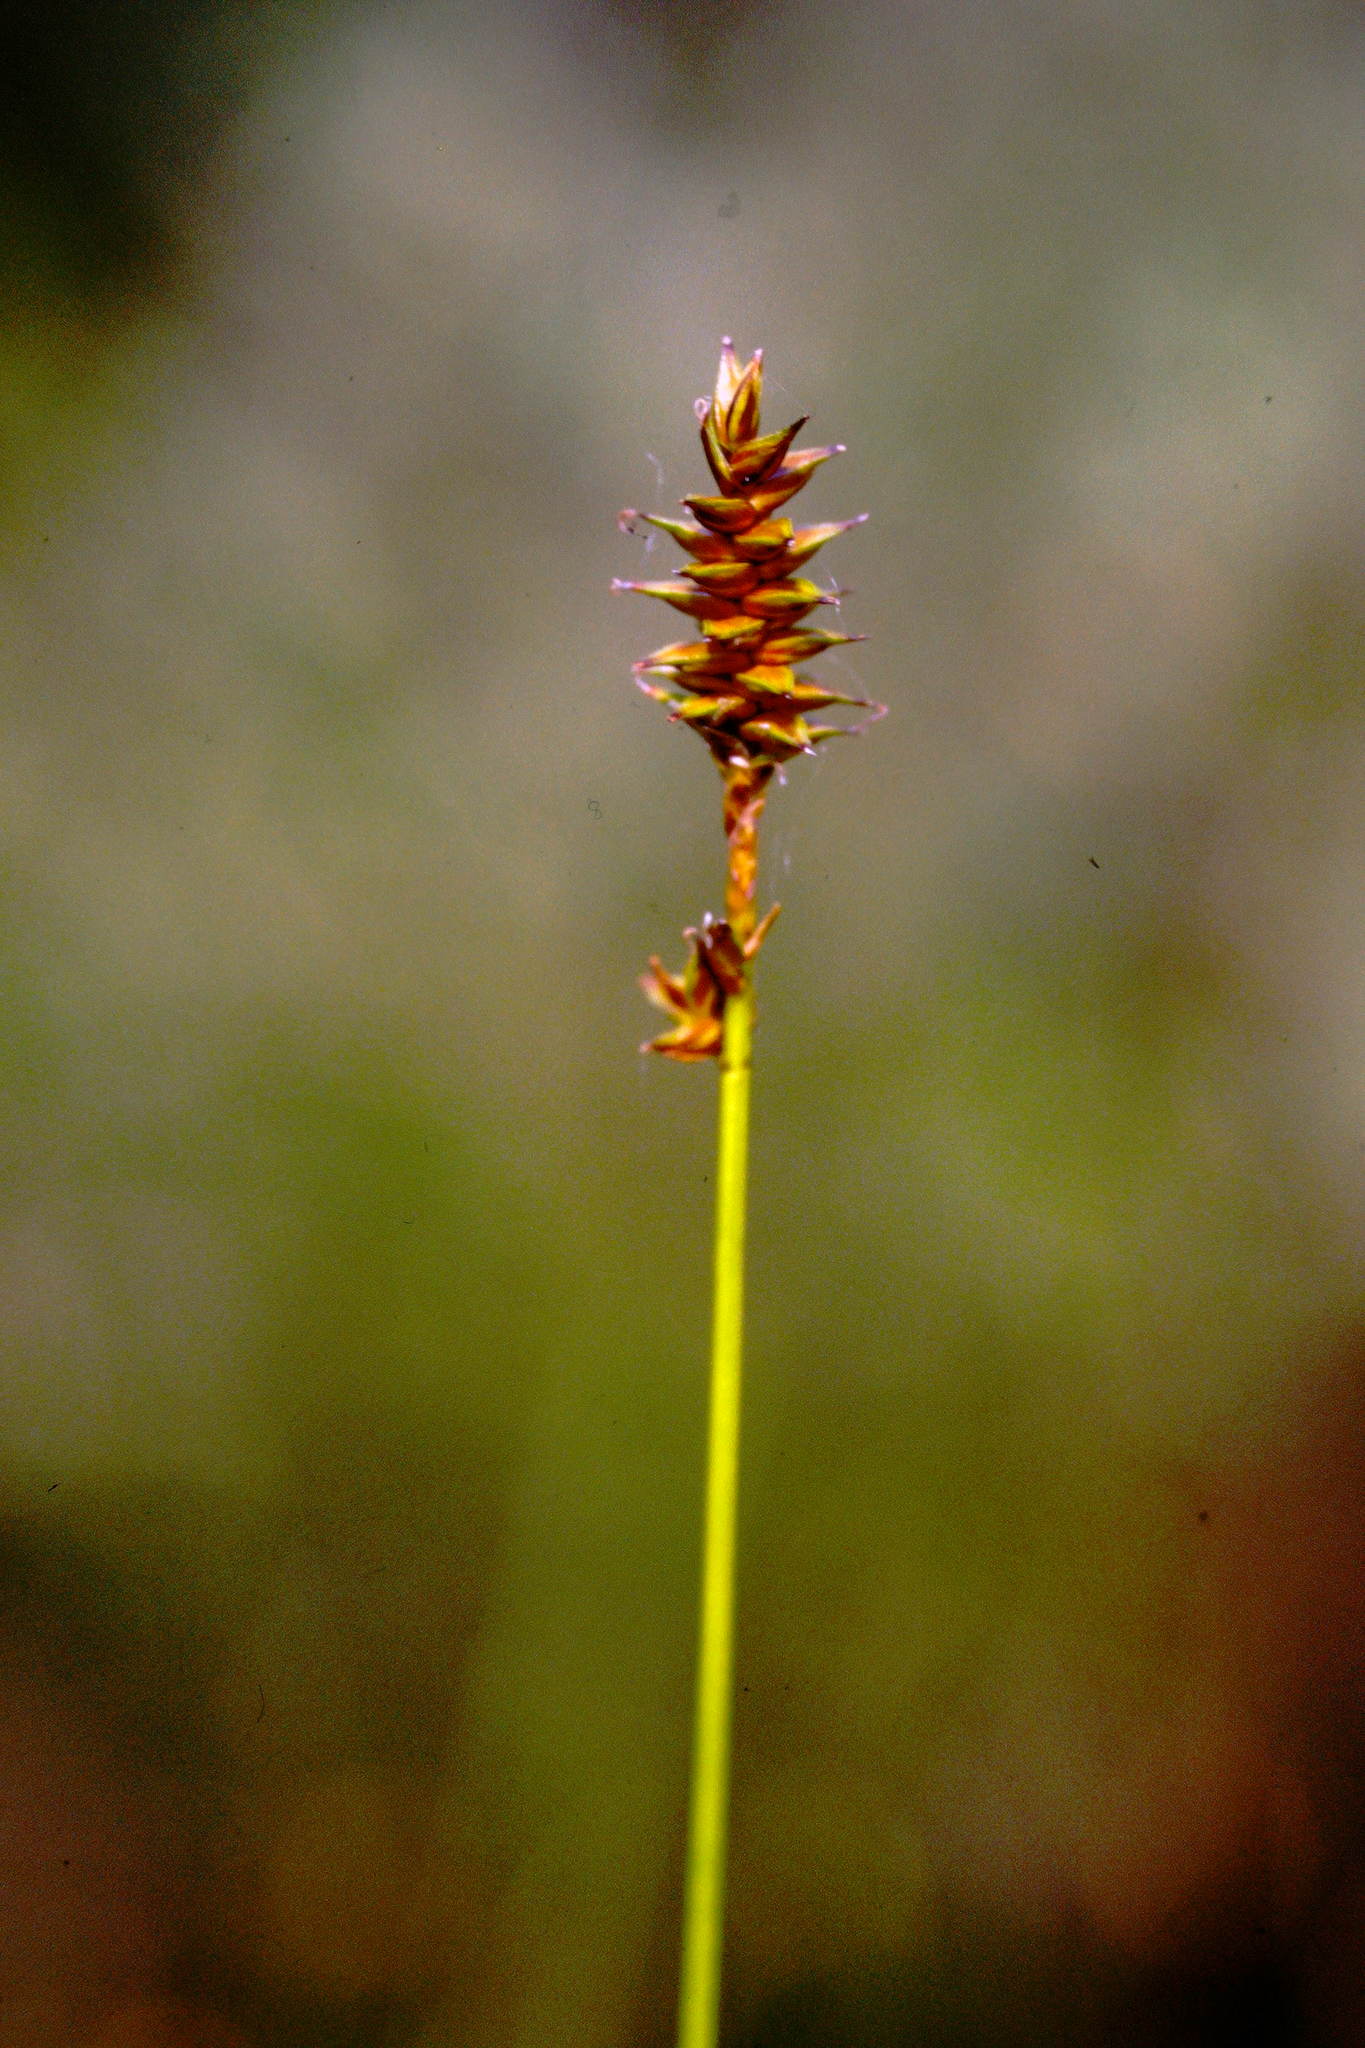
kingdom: Plantae
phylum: Tracheophyta
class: Liliopsida
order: Poales
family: Cyperaceae
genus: Carex
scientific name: Carex exilis
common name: Coastal sedge
